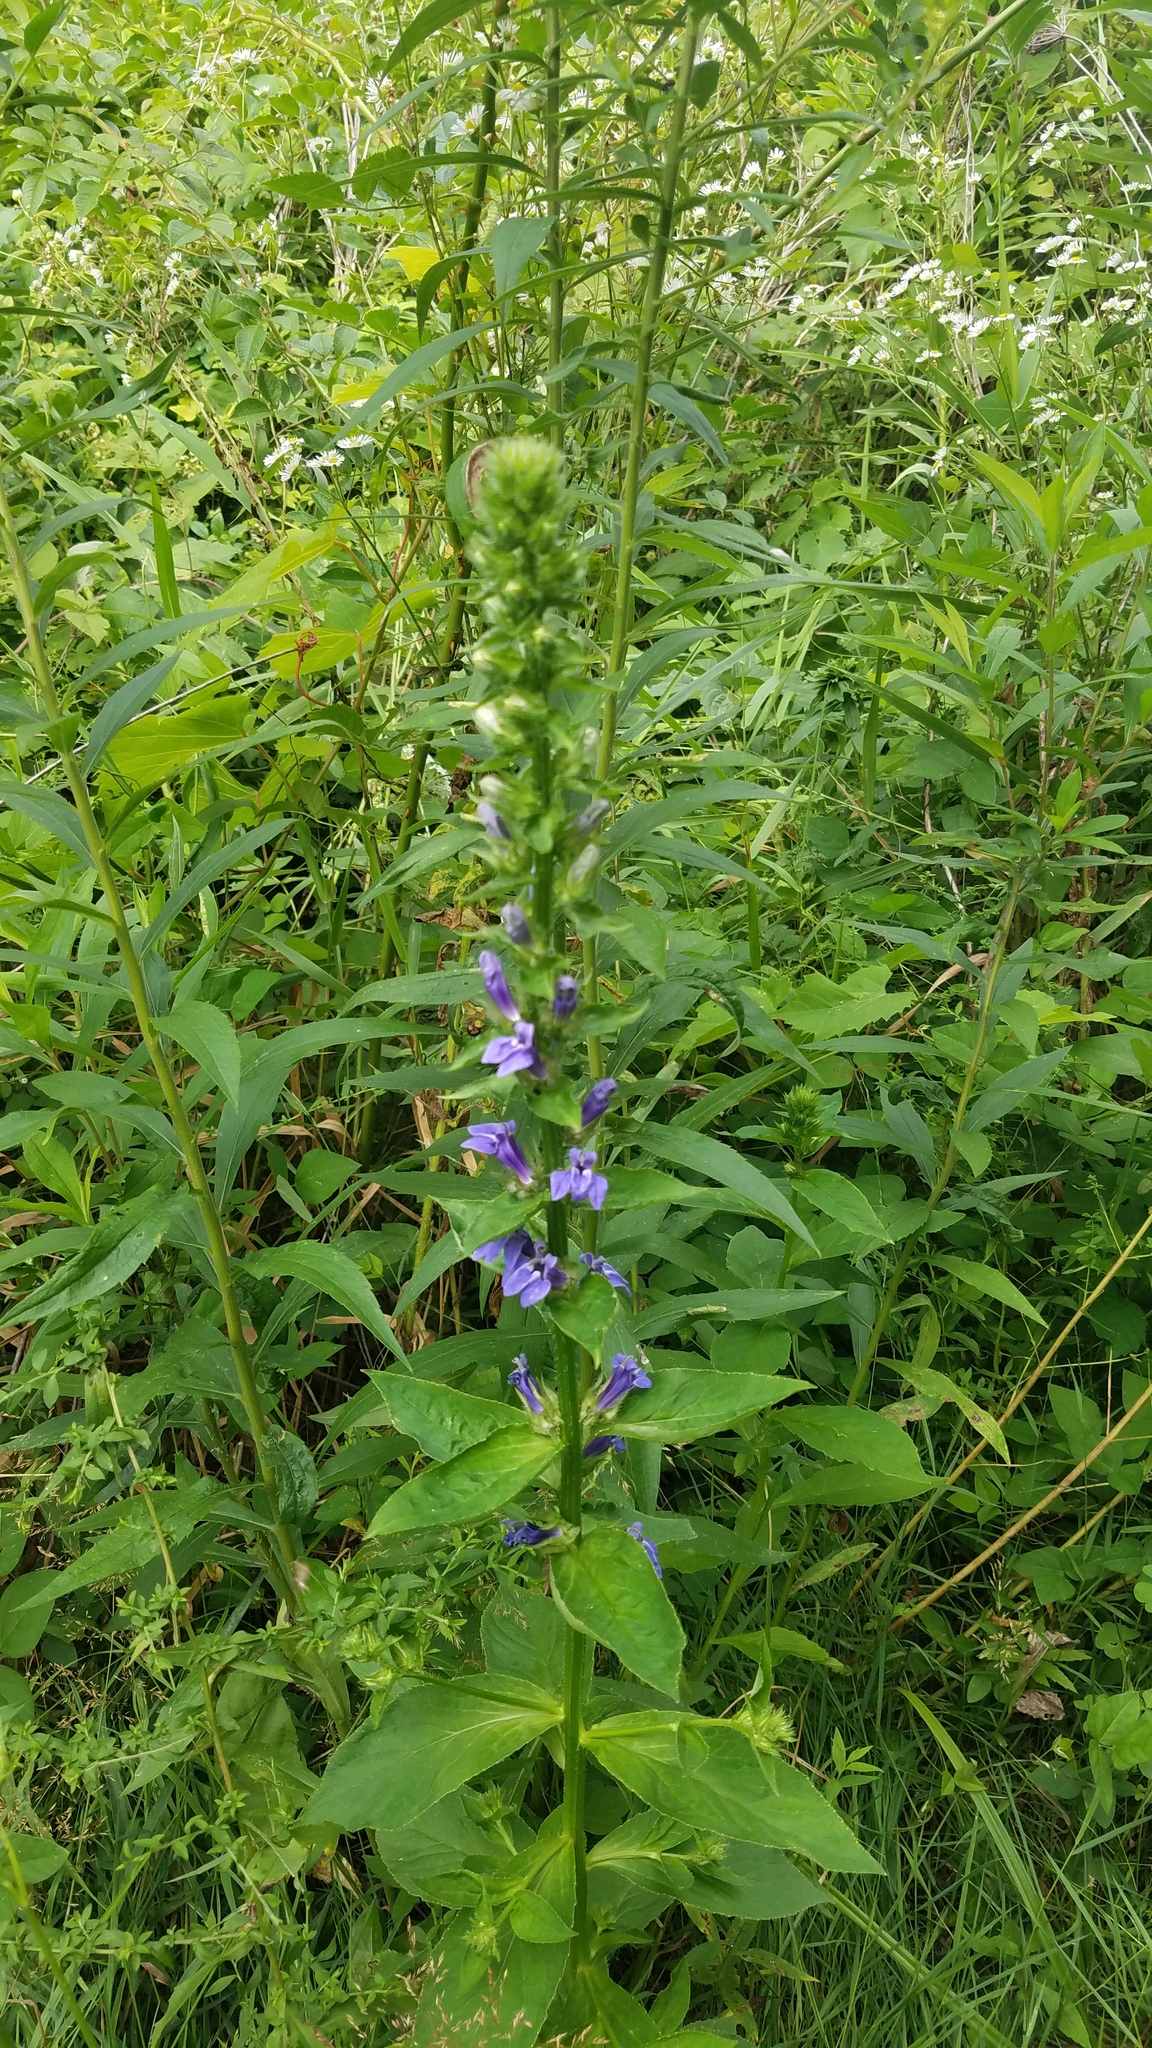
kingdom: Plantae
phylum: Tracheophyta
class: Magnoliopsida
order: Asterales
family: Campanulaceae
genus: Lobelia
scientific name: Lobelia siphilitica
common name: Great lobelia
